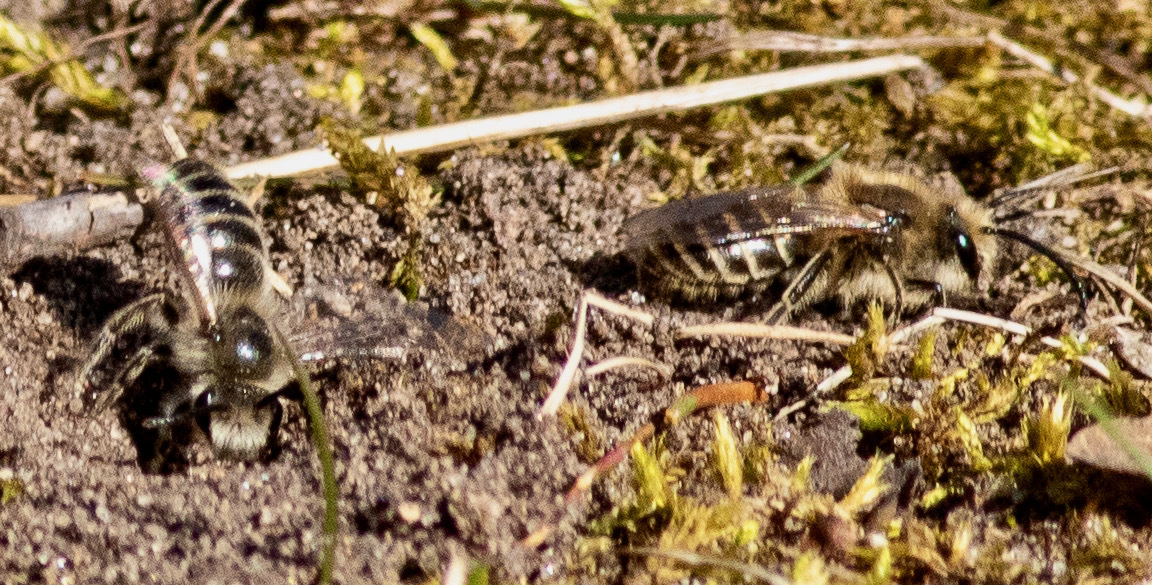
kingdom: Animalia
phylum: Arthropoda
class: Insecta
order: Hymenoptera
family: Colletidae
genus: Colletes
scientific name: Colletes inaequalis
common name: Unequal cellophane bee
